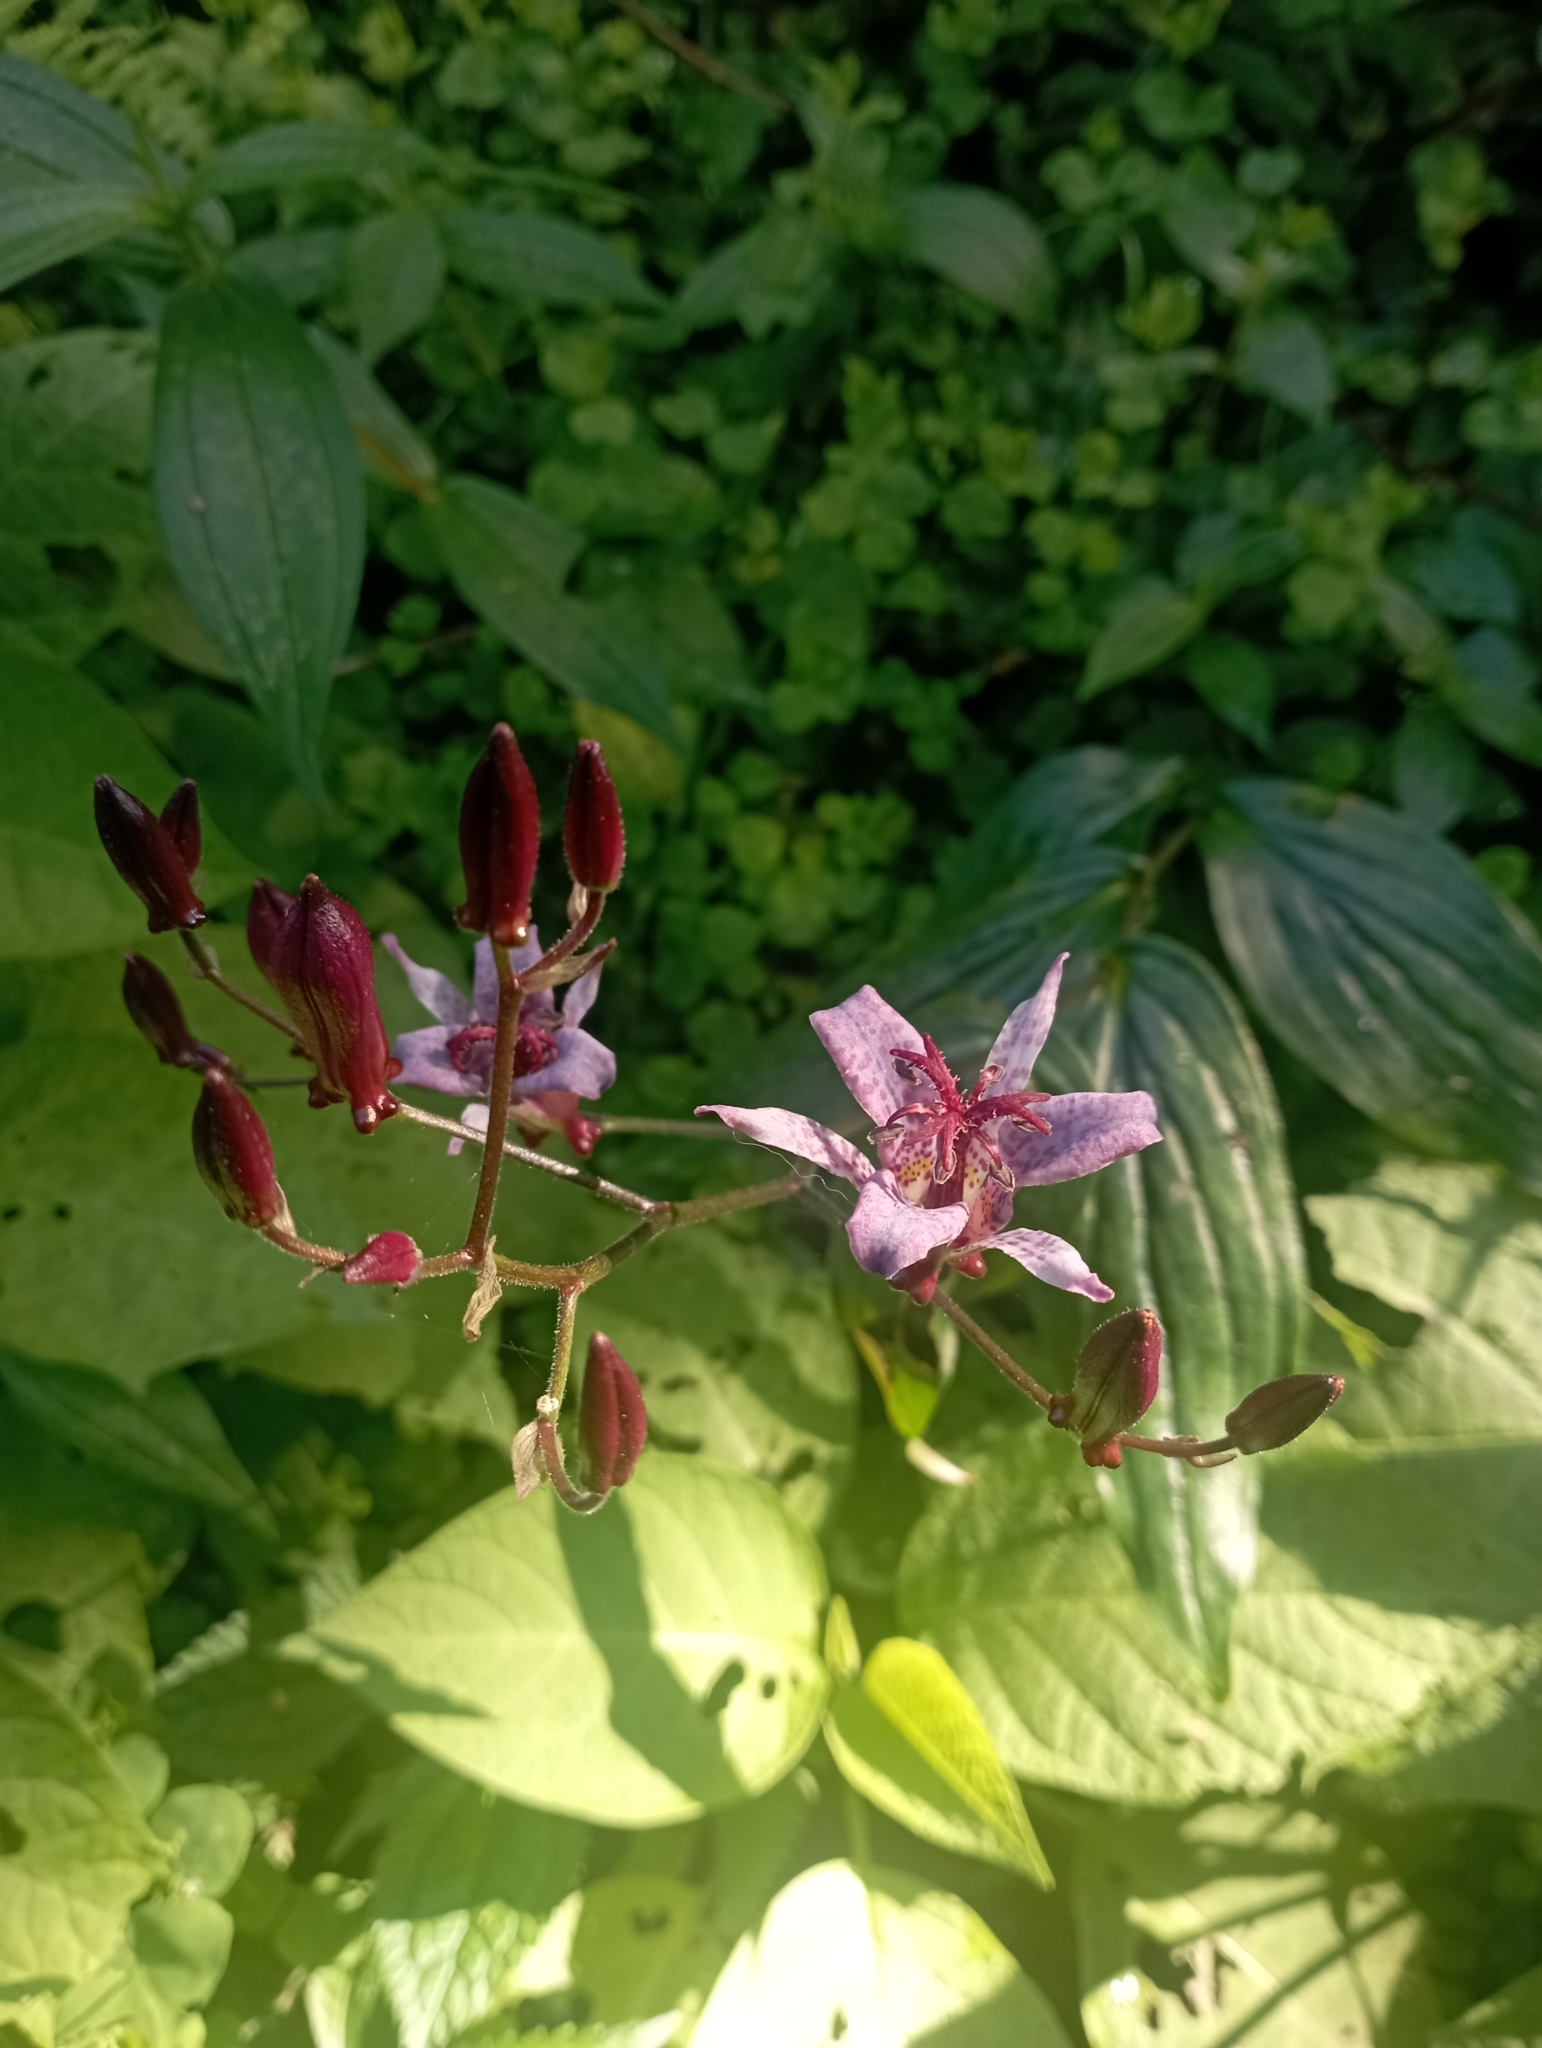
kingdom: Plantae
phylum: Tracheophyta
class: Liliopsida
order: Liliales
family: Liliaceae
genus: Tricyrtis
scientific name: Tricyrtis formosana
